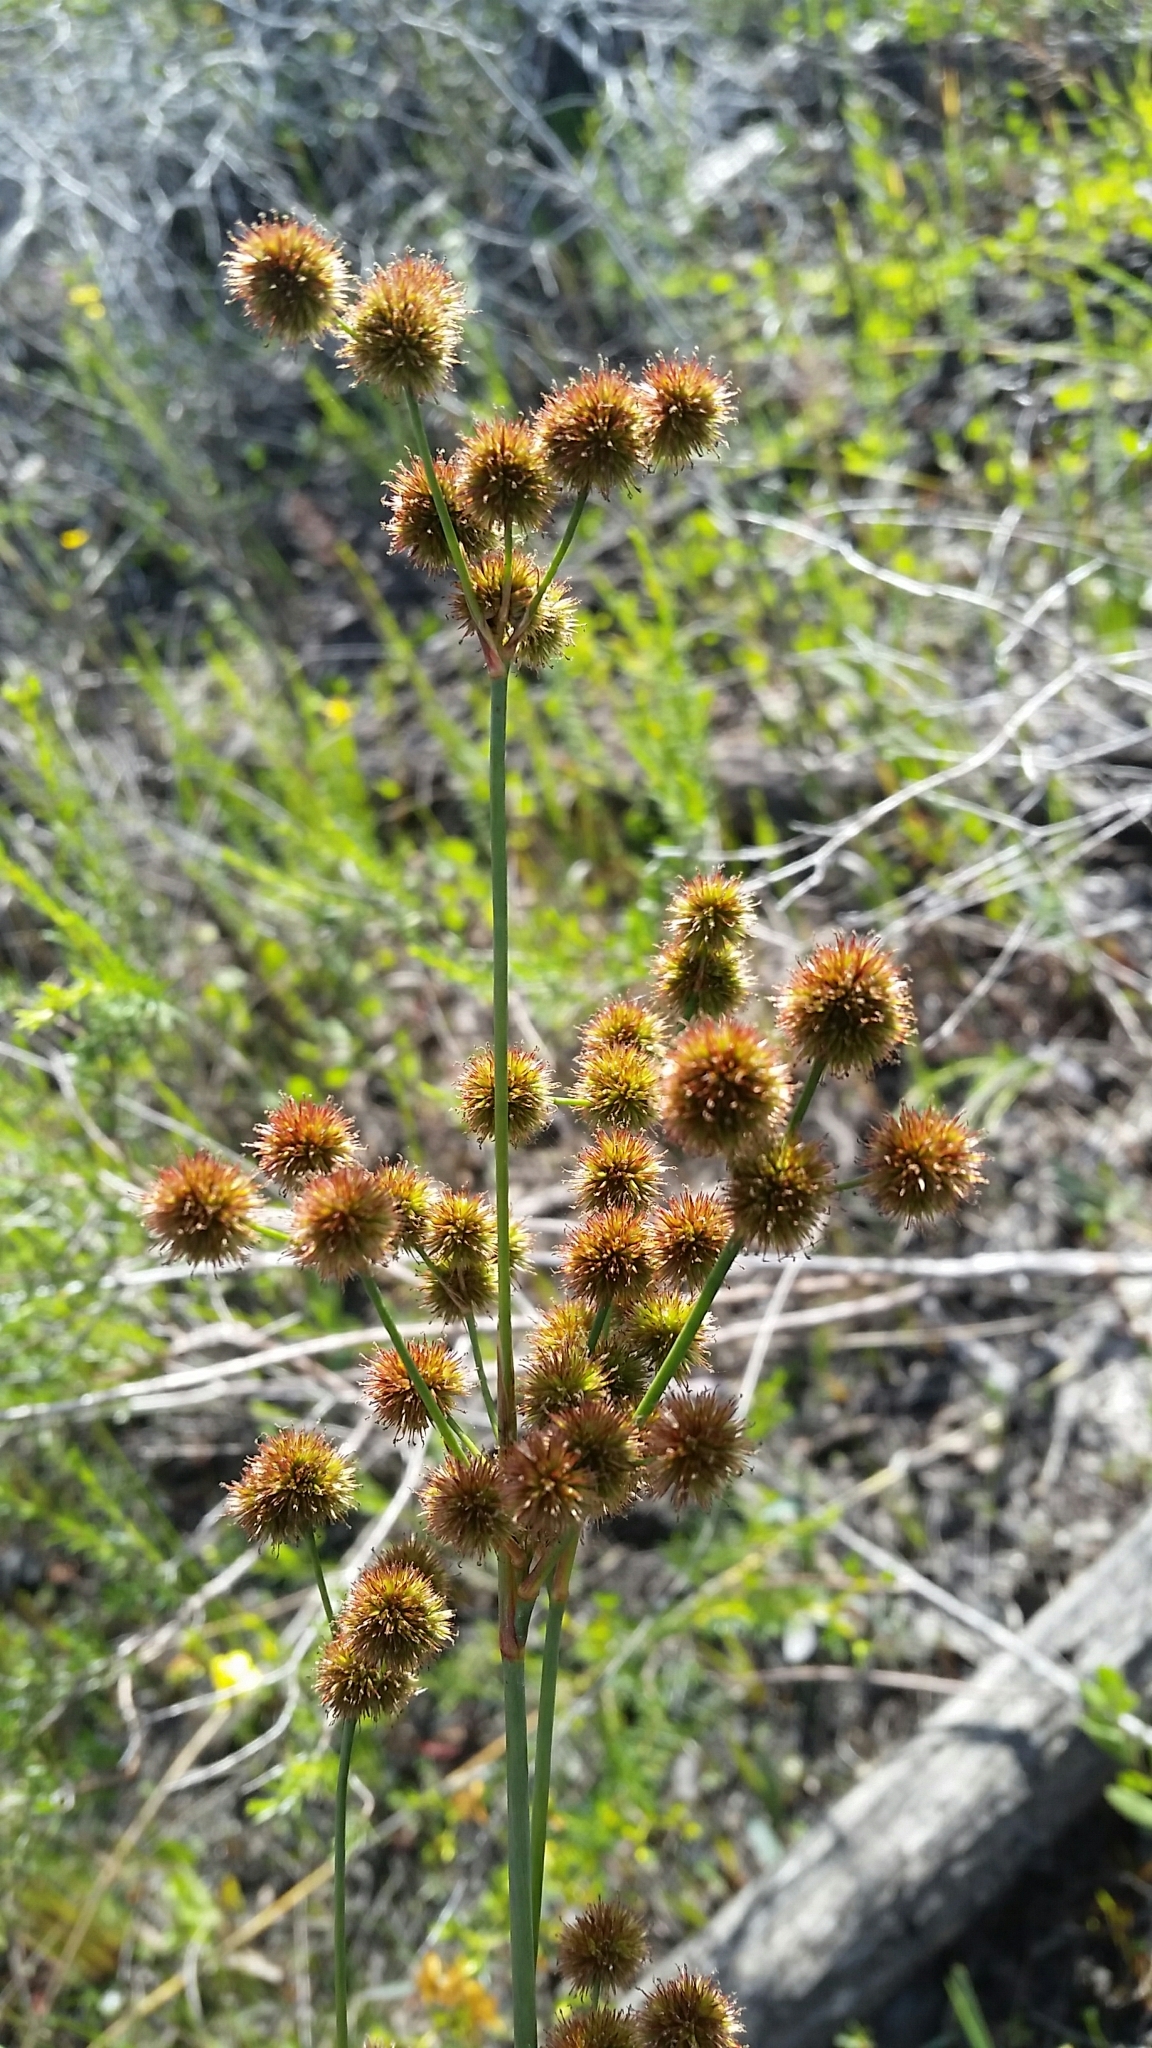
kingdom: Plantae
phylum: Tracheophyta
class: Liliopsida
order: Poales
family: Juncaceae
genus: Juncus
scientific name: Juncus megacephalus
